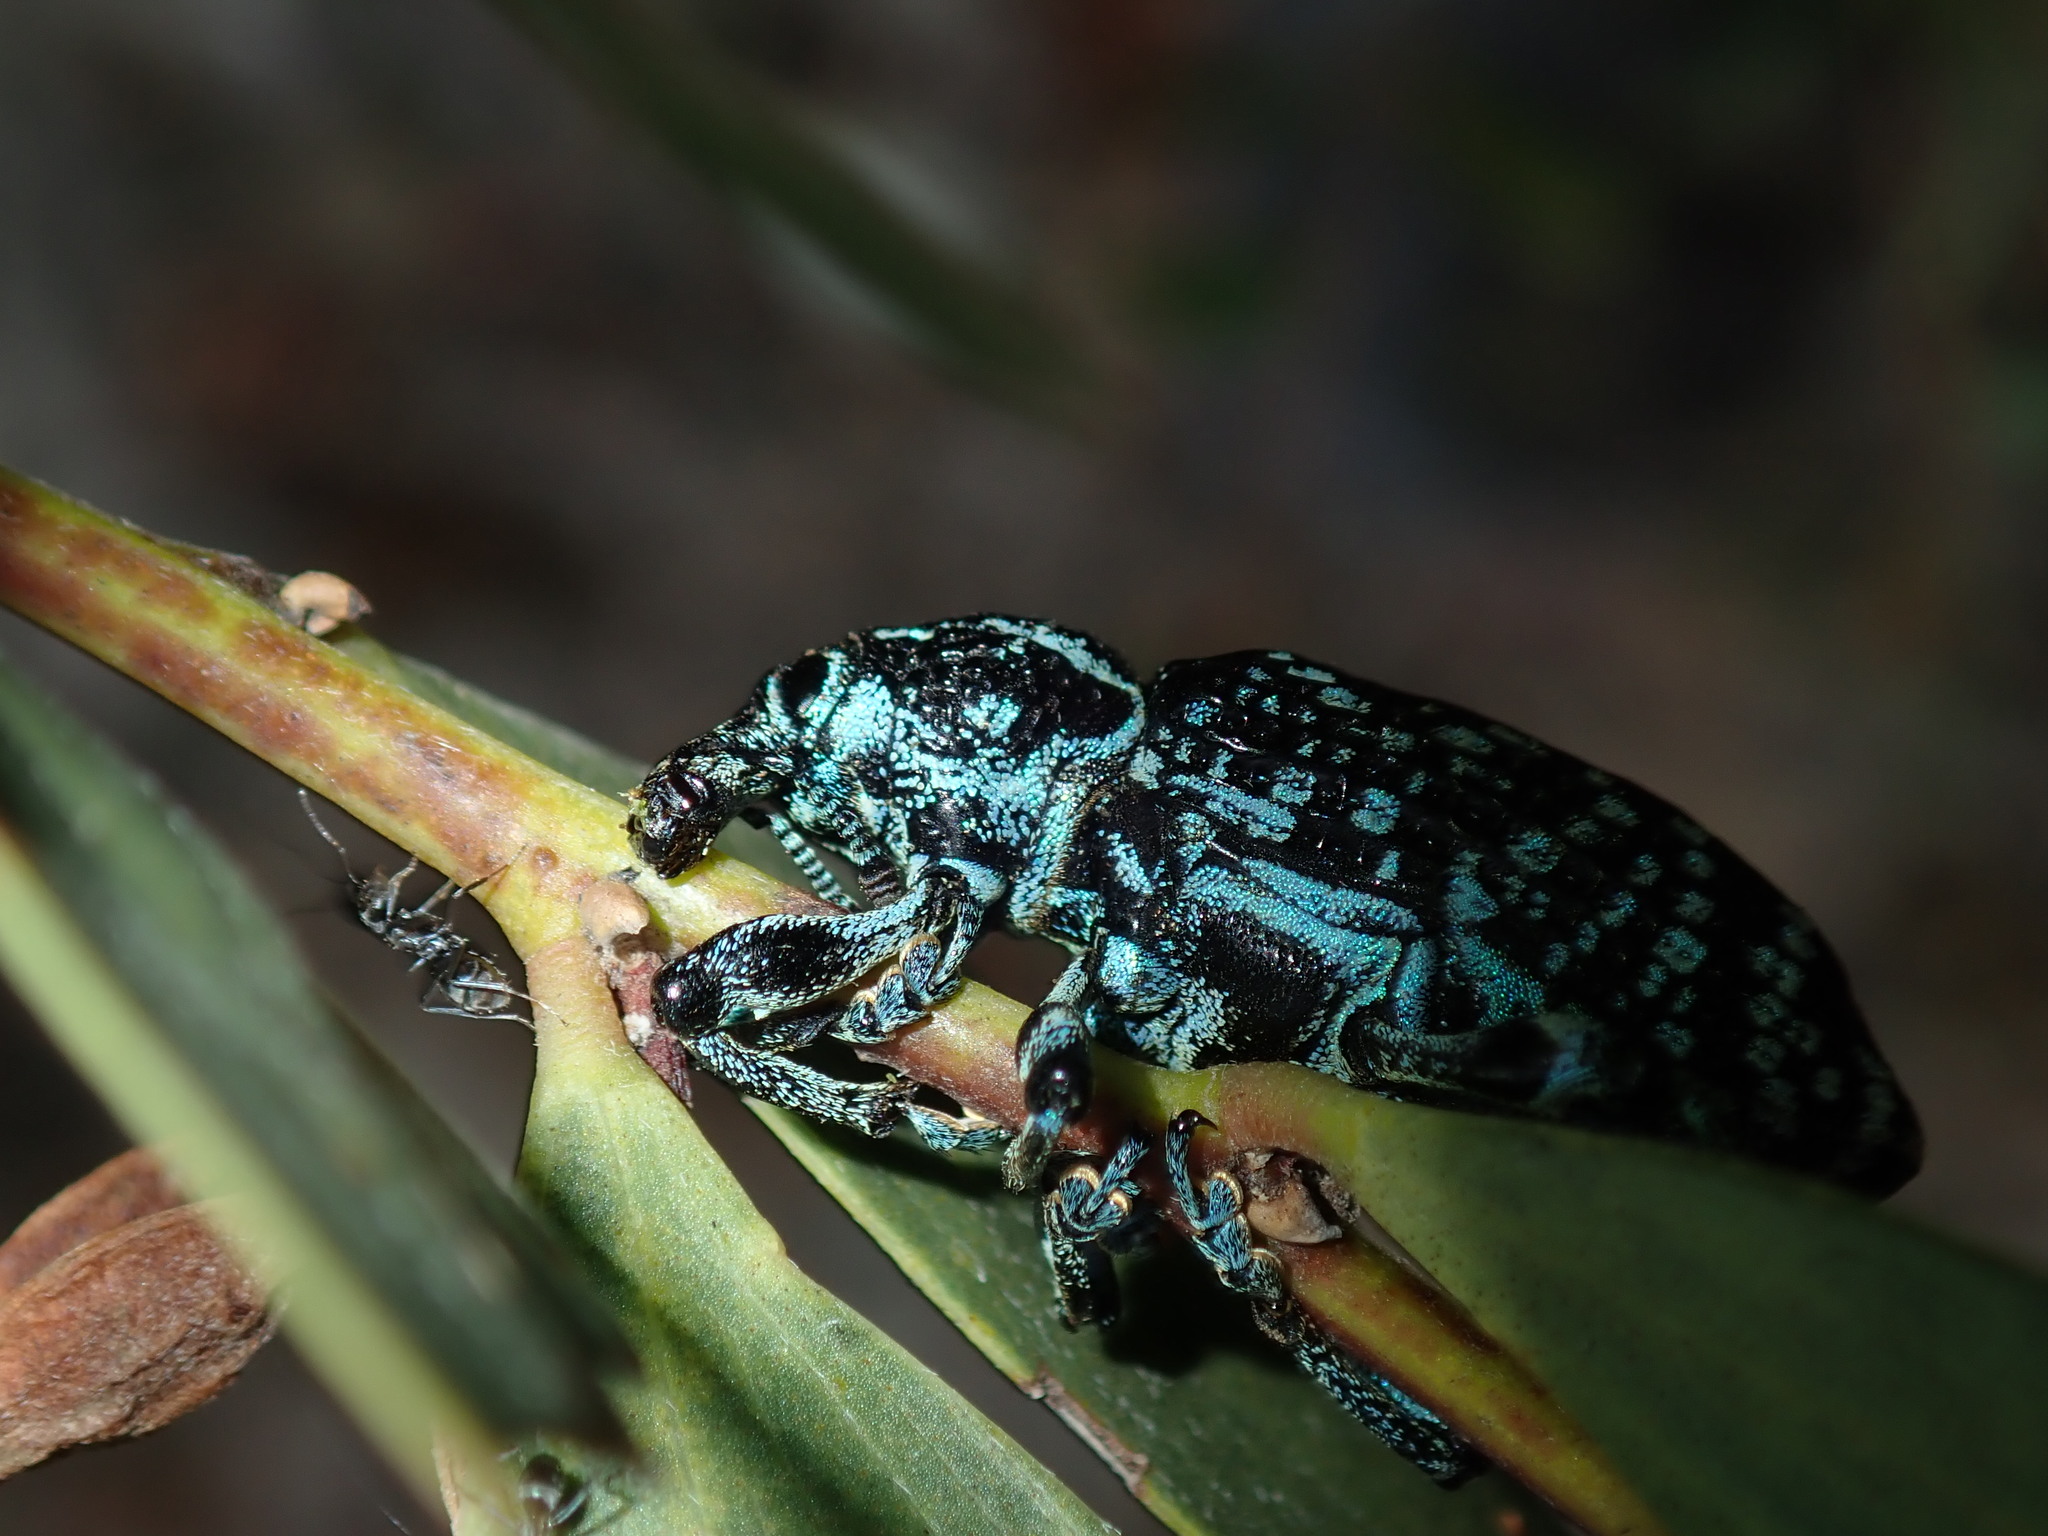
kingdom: Animalia
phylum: Arthropoda
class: Insecta
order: Coleoptera
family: Curculionidae
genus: Chrysolopus
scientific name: Chrysolopus spectabilis
